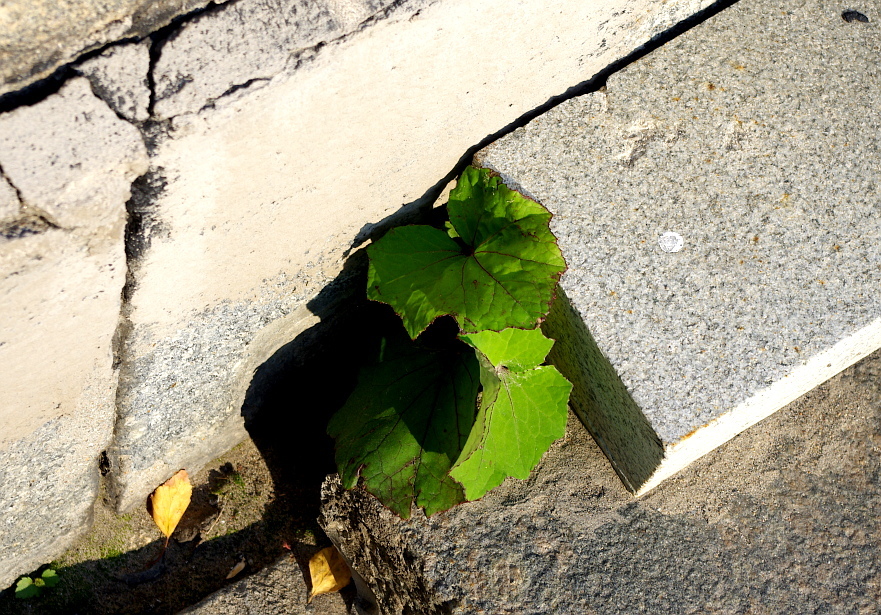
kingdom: Plantae
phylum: Tracheophyta
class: Magnoliopsida
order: Asterales
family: Asteraceae
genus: Tussilago
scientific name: Tussilago farfara
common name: Coltsfoot
